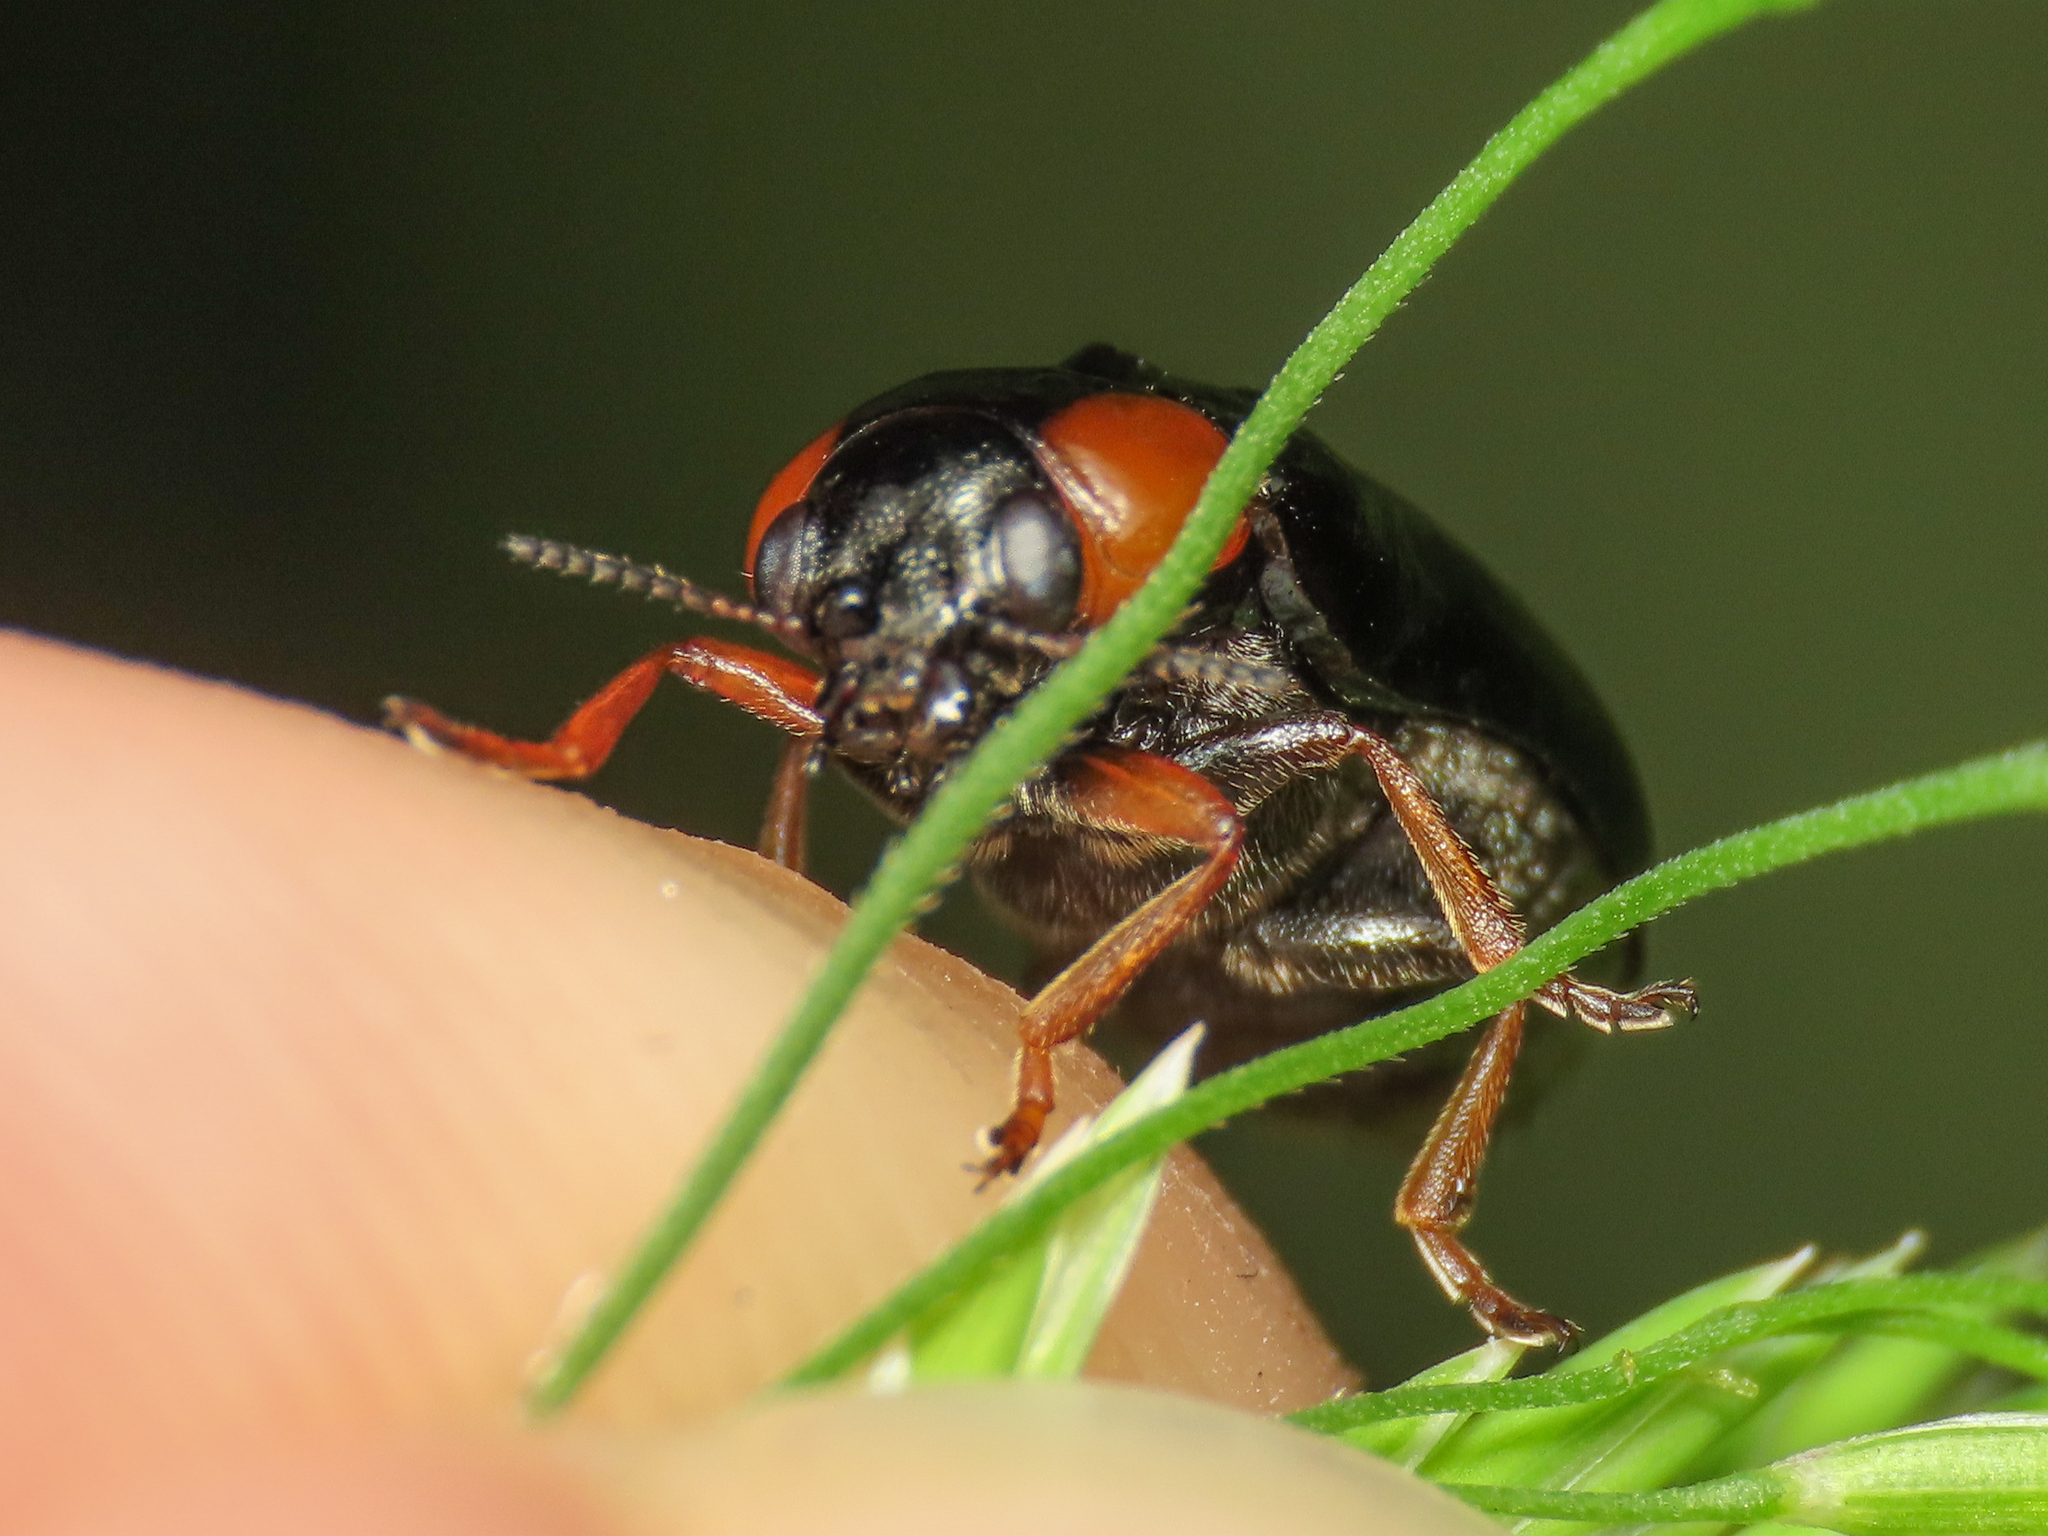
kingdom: Animalia
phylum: Arthropoda
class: Insecta
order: Coleoptera
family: Chrysomelidae
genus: Smaragdina
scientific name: Smaragdina aurita
